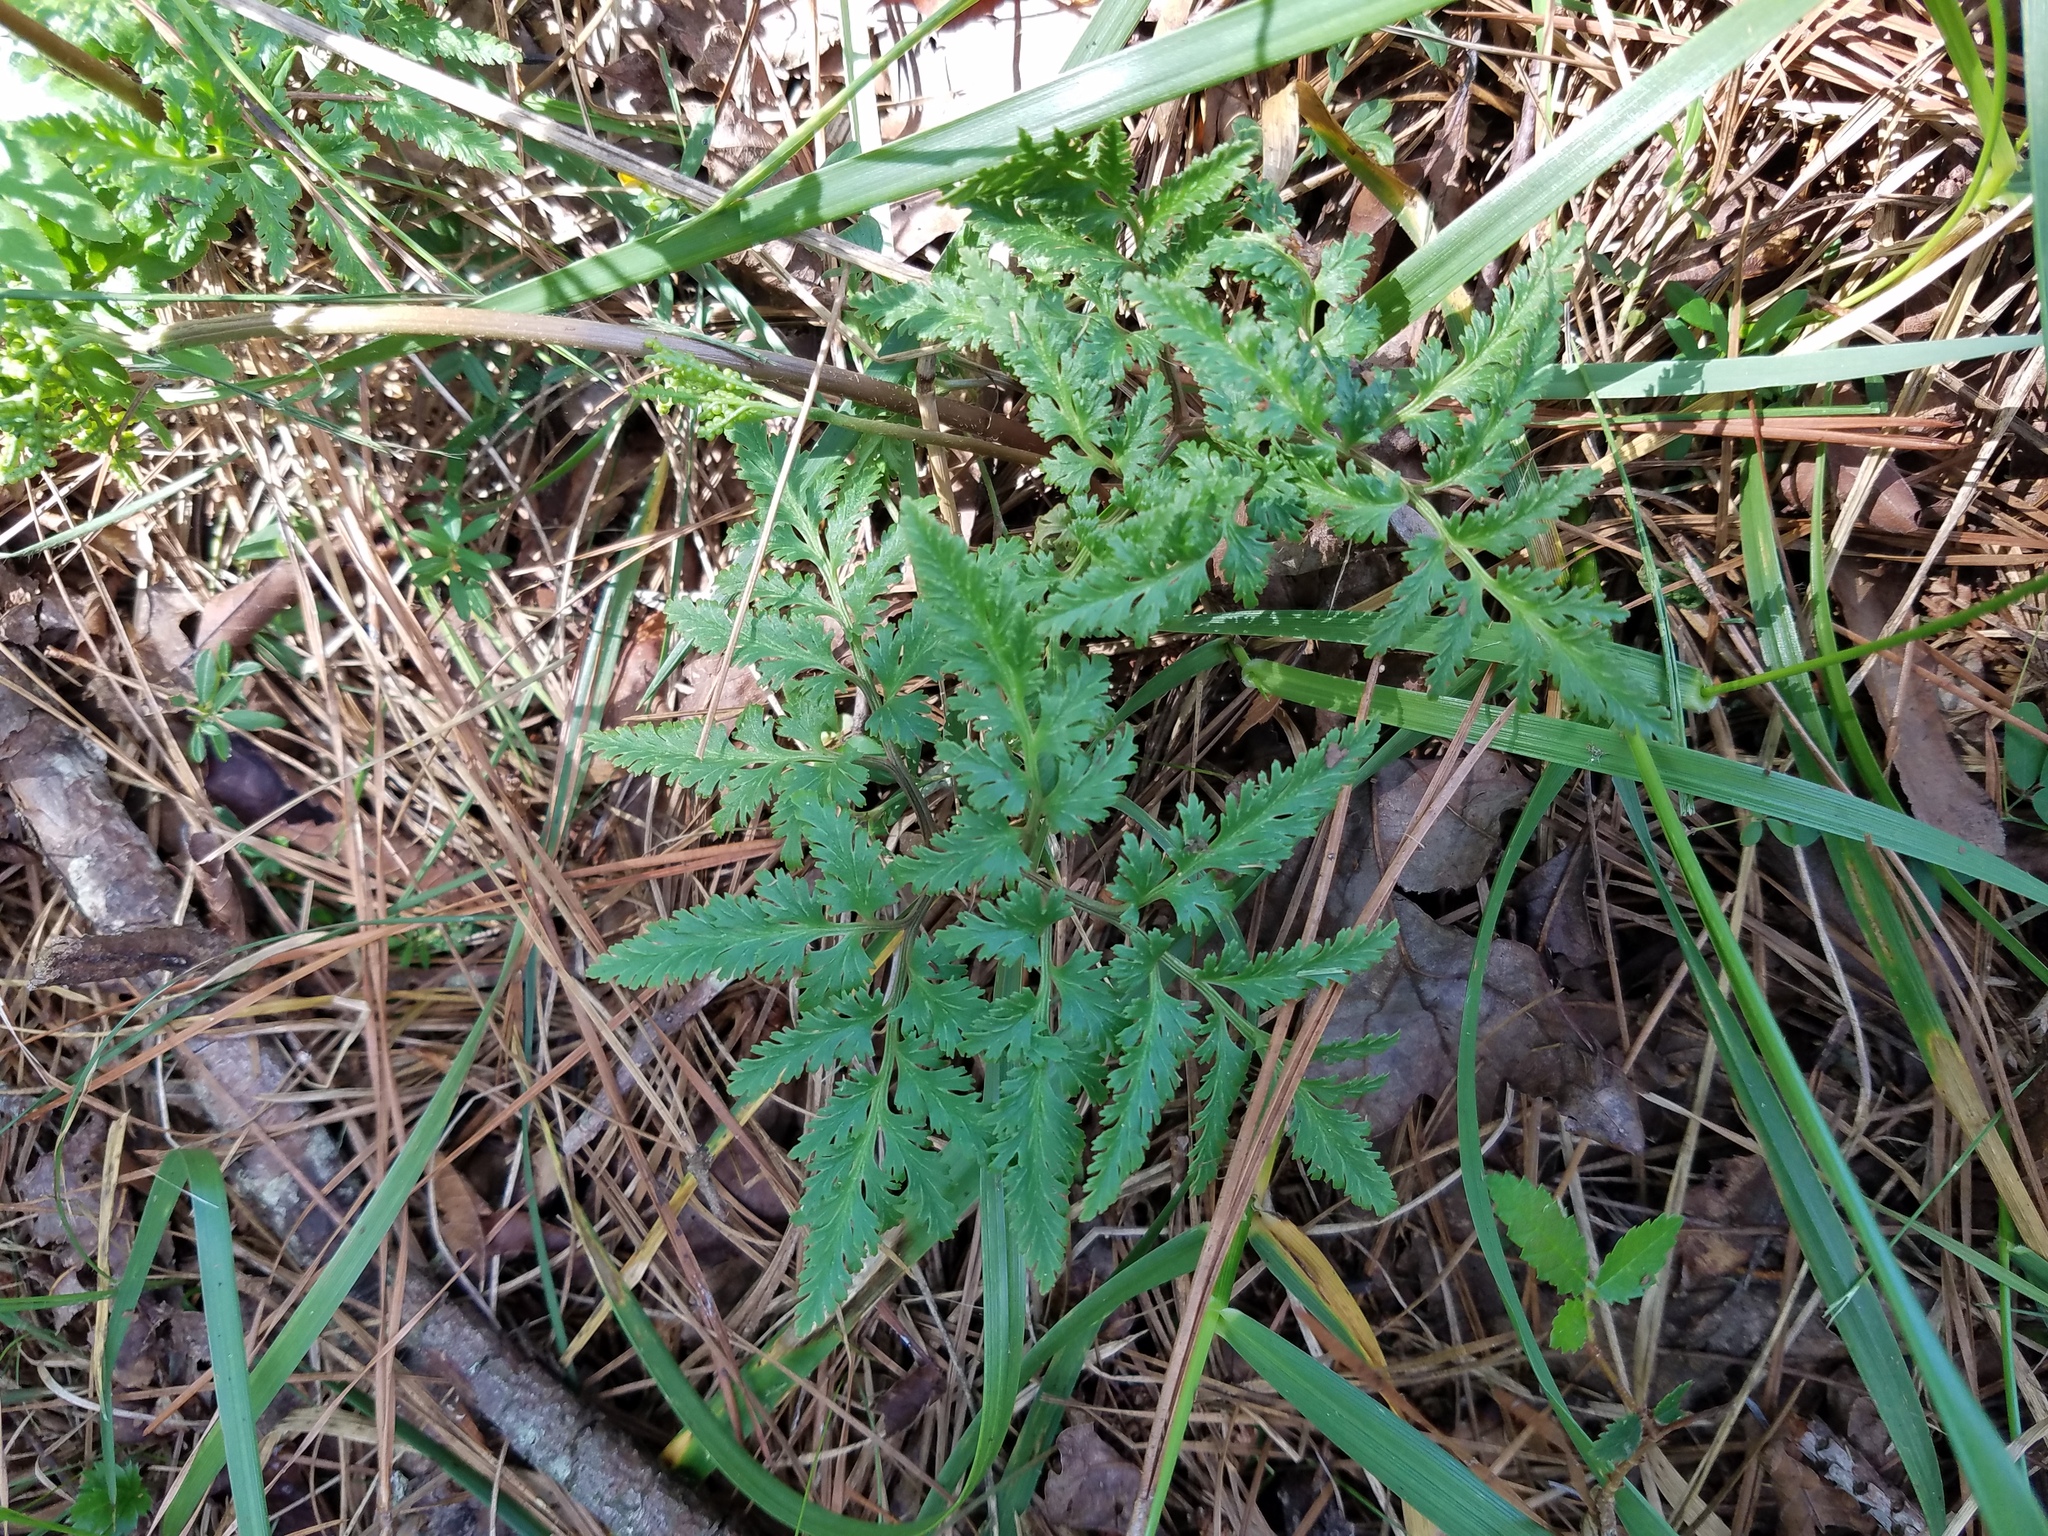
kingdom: Plantae
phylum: Tracheophyta
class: Polypodiopsida
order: Ophioglossales
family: Ophioglossaceae
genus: Sceptridium
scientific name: Sceptridium dissectum
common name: Cut-leaved grapefern
